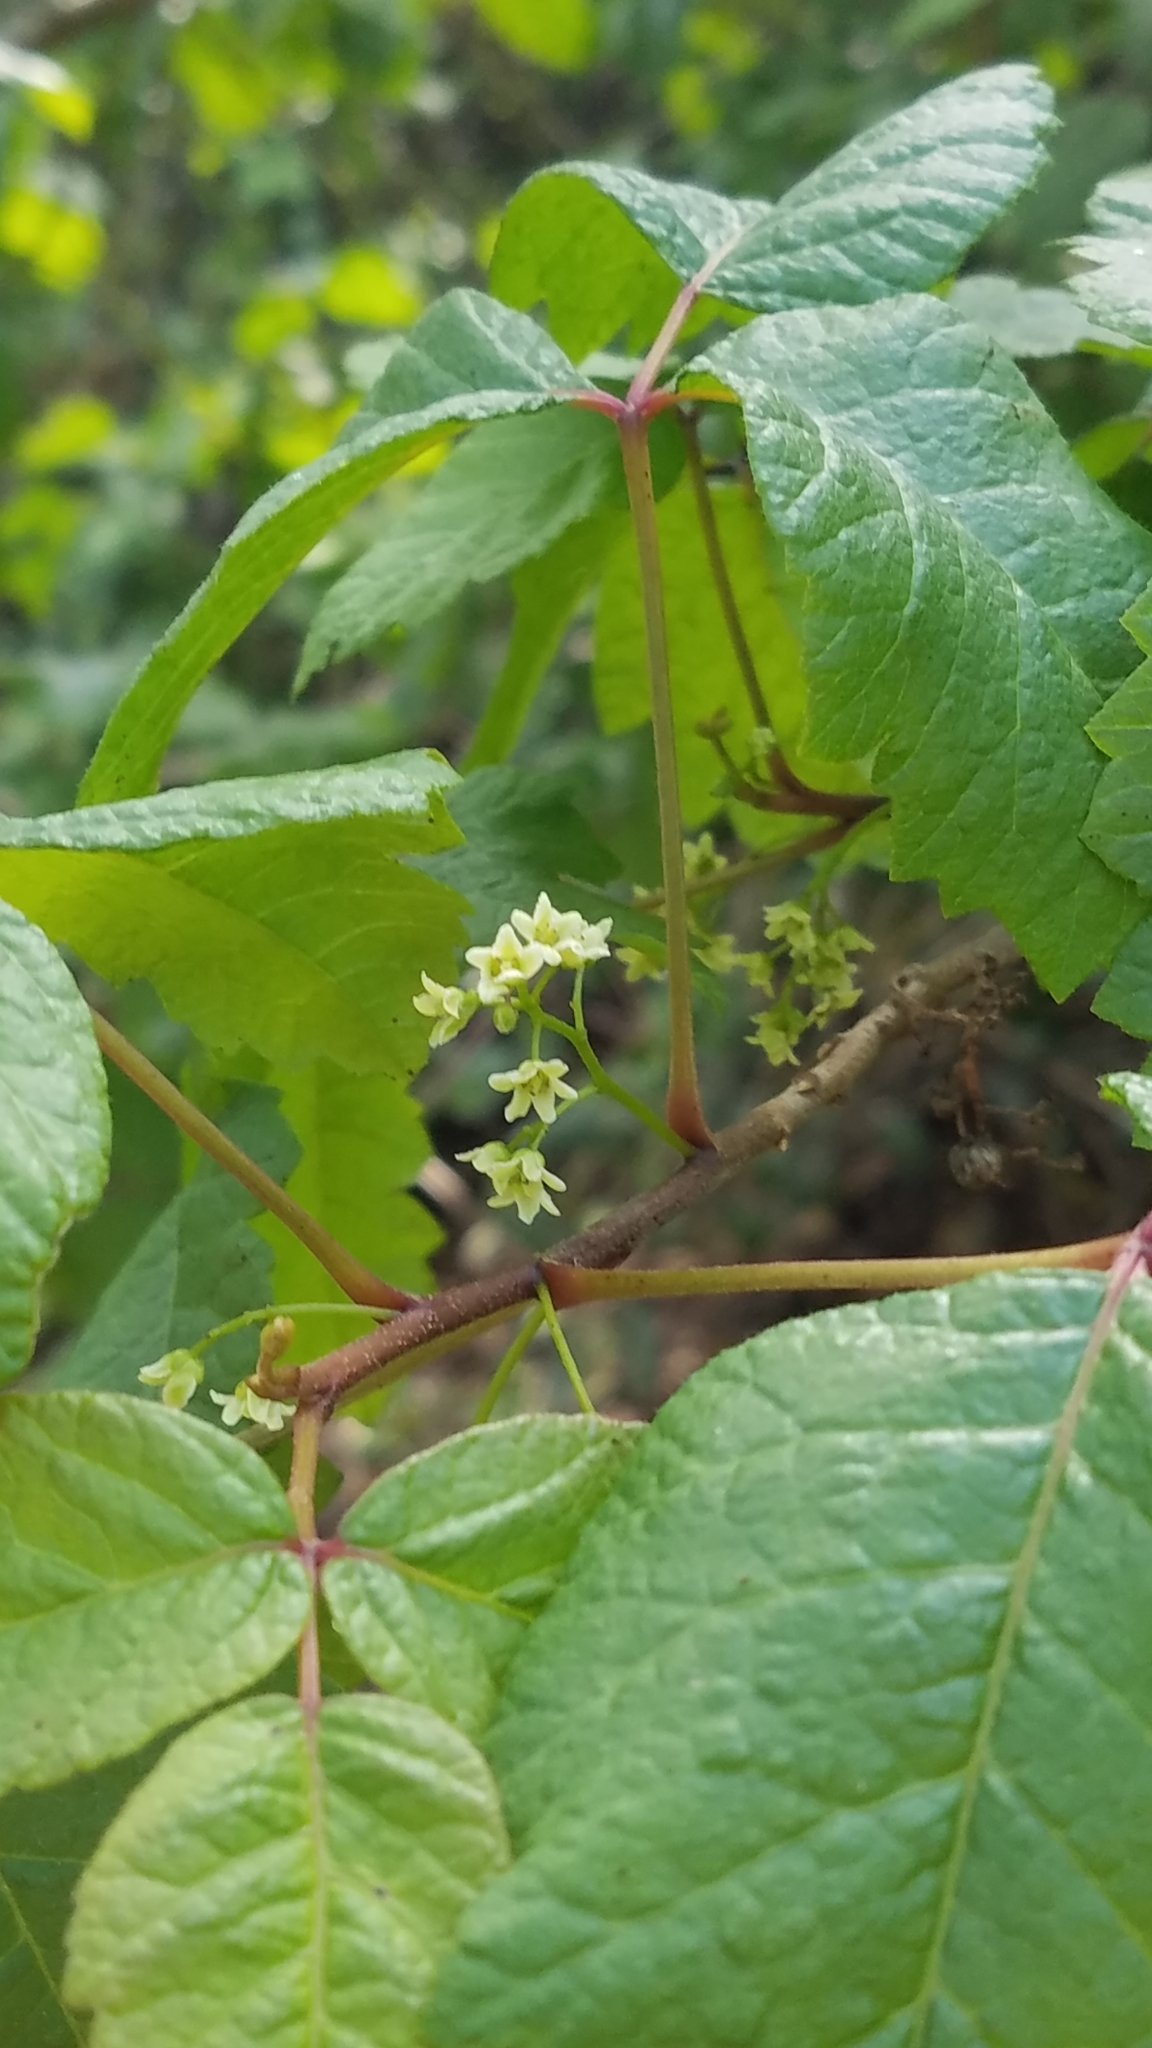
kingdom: Plantae
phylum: Tracheophyta
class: Magnoliopsida
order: Sapindales
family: Anacardiaceae
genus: Toxicodendron
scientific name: Toxicodendron diversilobum
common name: Pacific poison-oak
